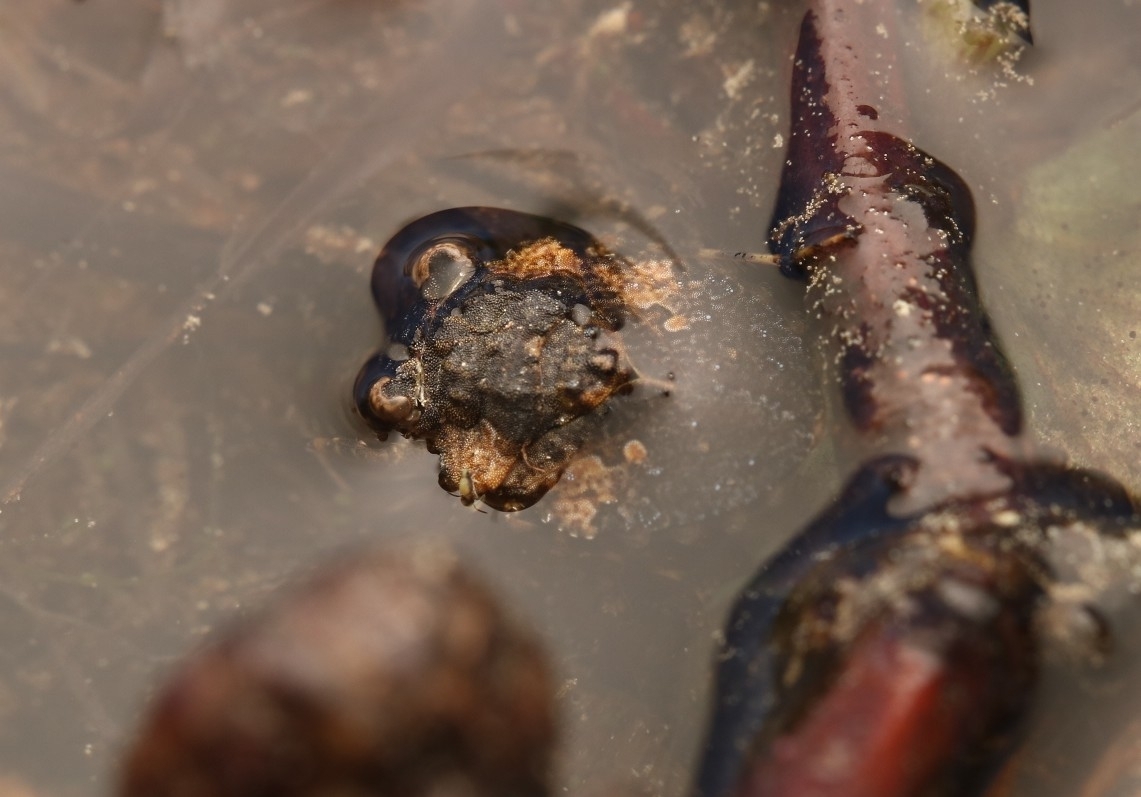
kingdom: Animalia
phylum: Arthropoda
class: Insecta
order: Hemiptera
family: Gelastocoridae
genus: Gelastocoris
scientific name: Gelastocoris oculatus
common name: Toad bug
